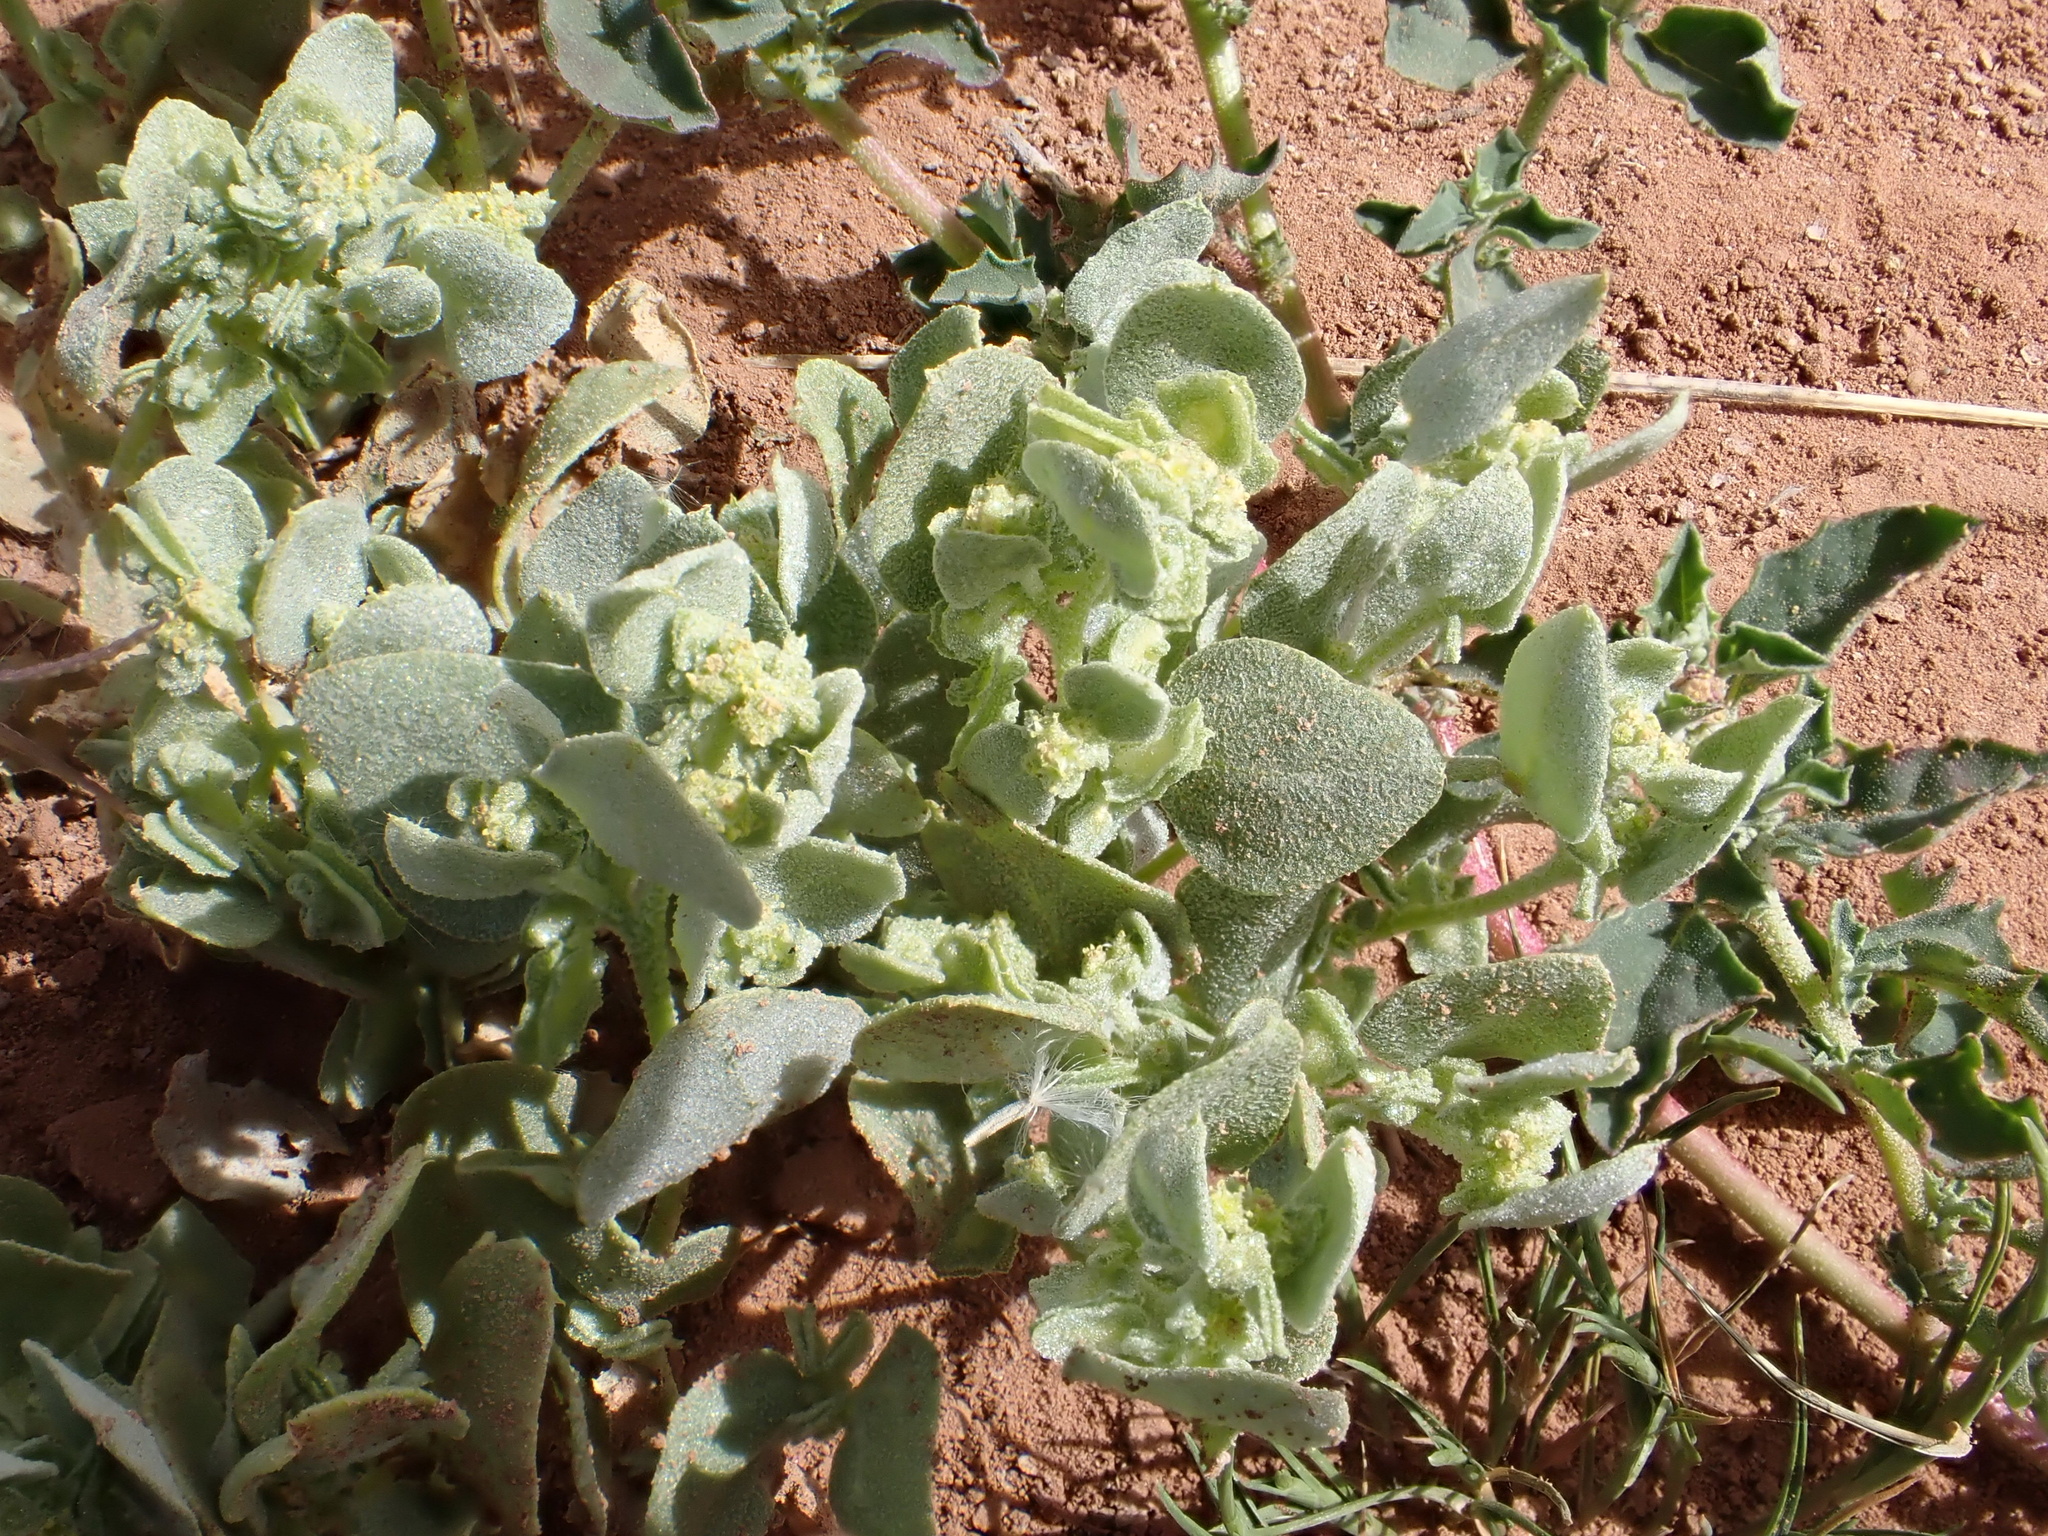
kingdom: Plantae
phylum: Tracheophyta
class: Magnoliopsida
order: Caryophyllales
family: Amaranthaceae
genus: Atriplex
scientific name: Atriplex dimorphostegia
